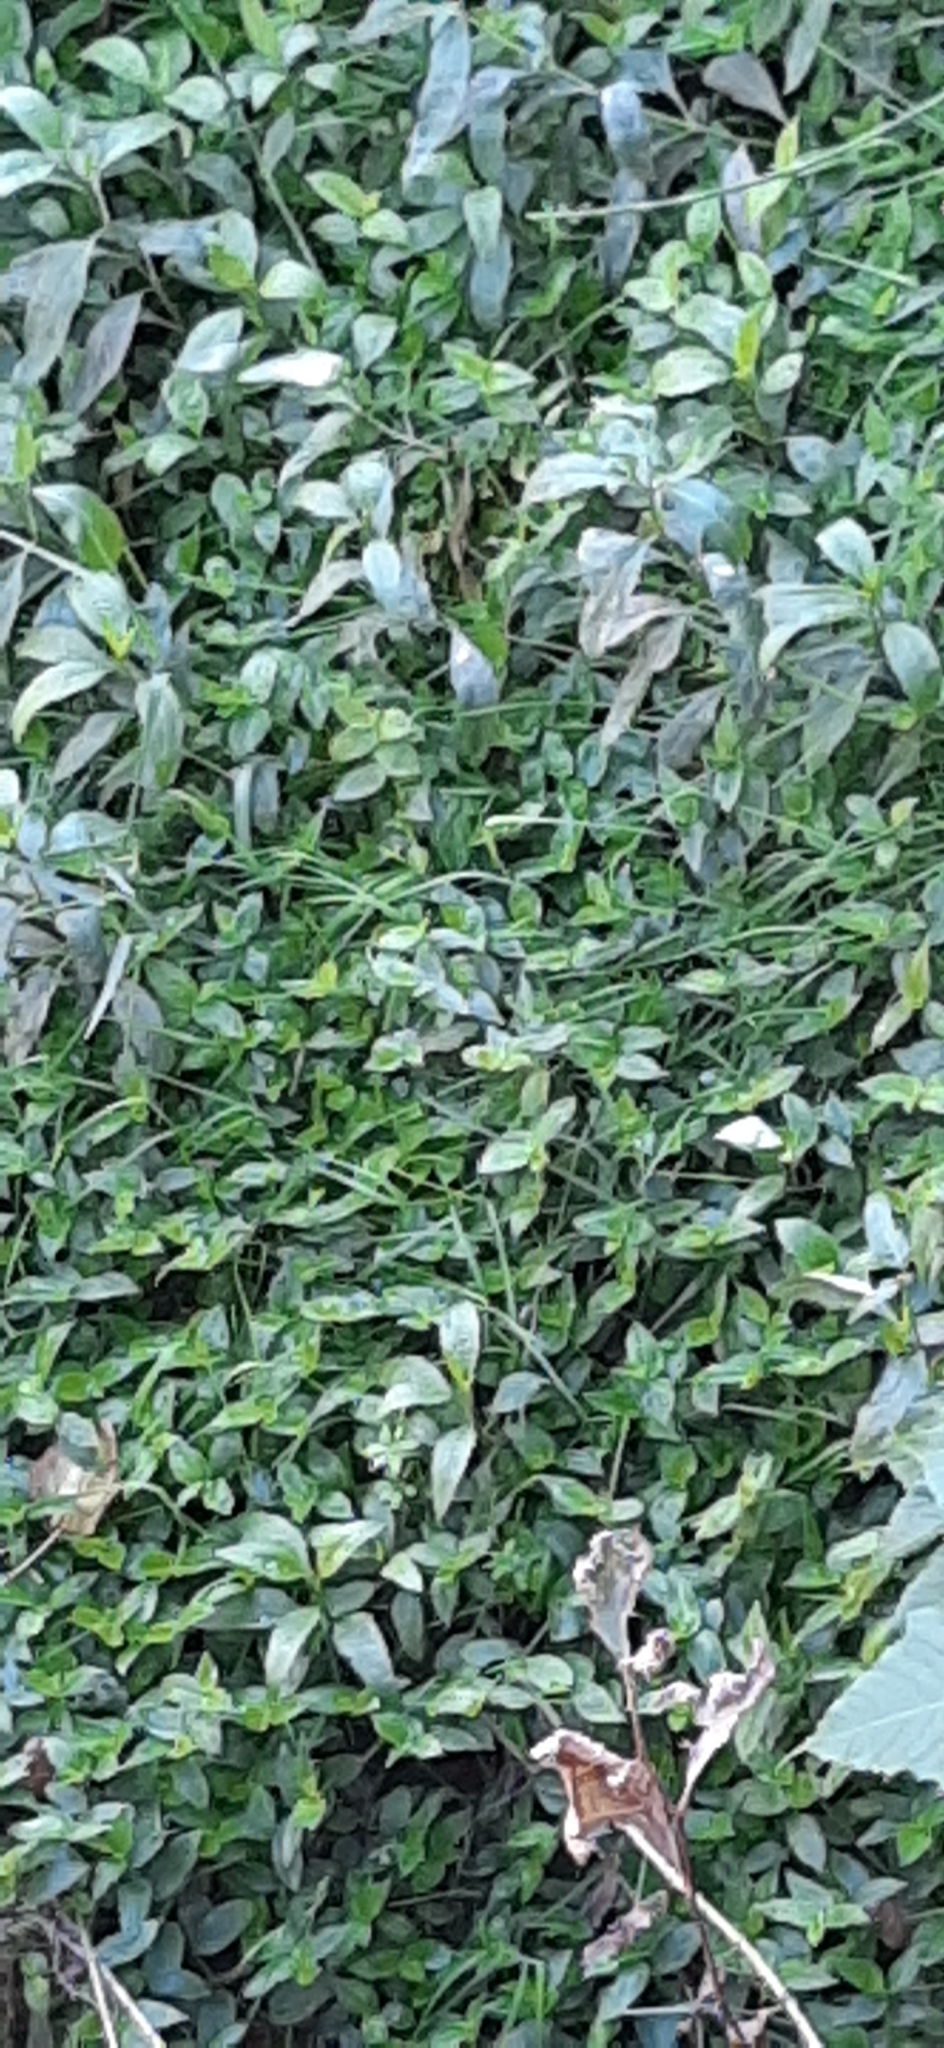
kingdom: Plantae
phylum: Tracheophyta
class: Liliopsida
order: Commelinales
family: Commelinaceae
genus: Tradescantia
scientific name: Tradescantia fluminensis
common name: Wandering-jew
